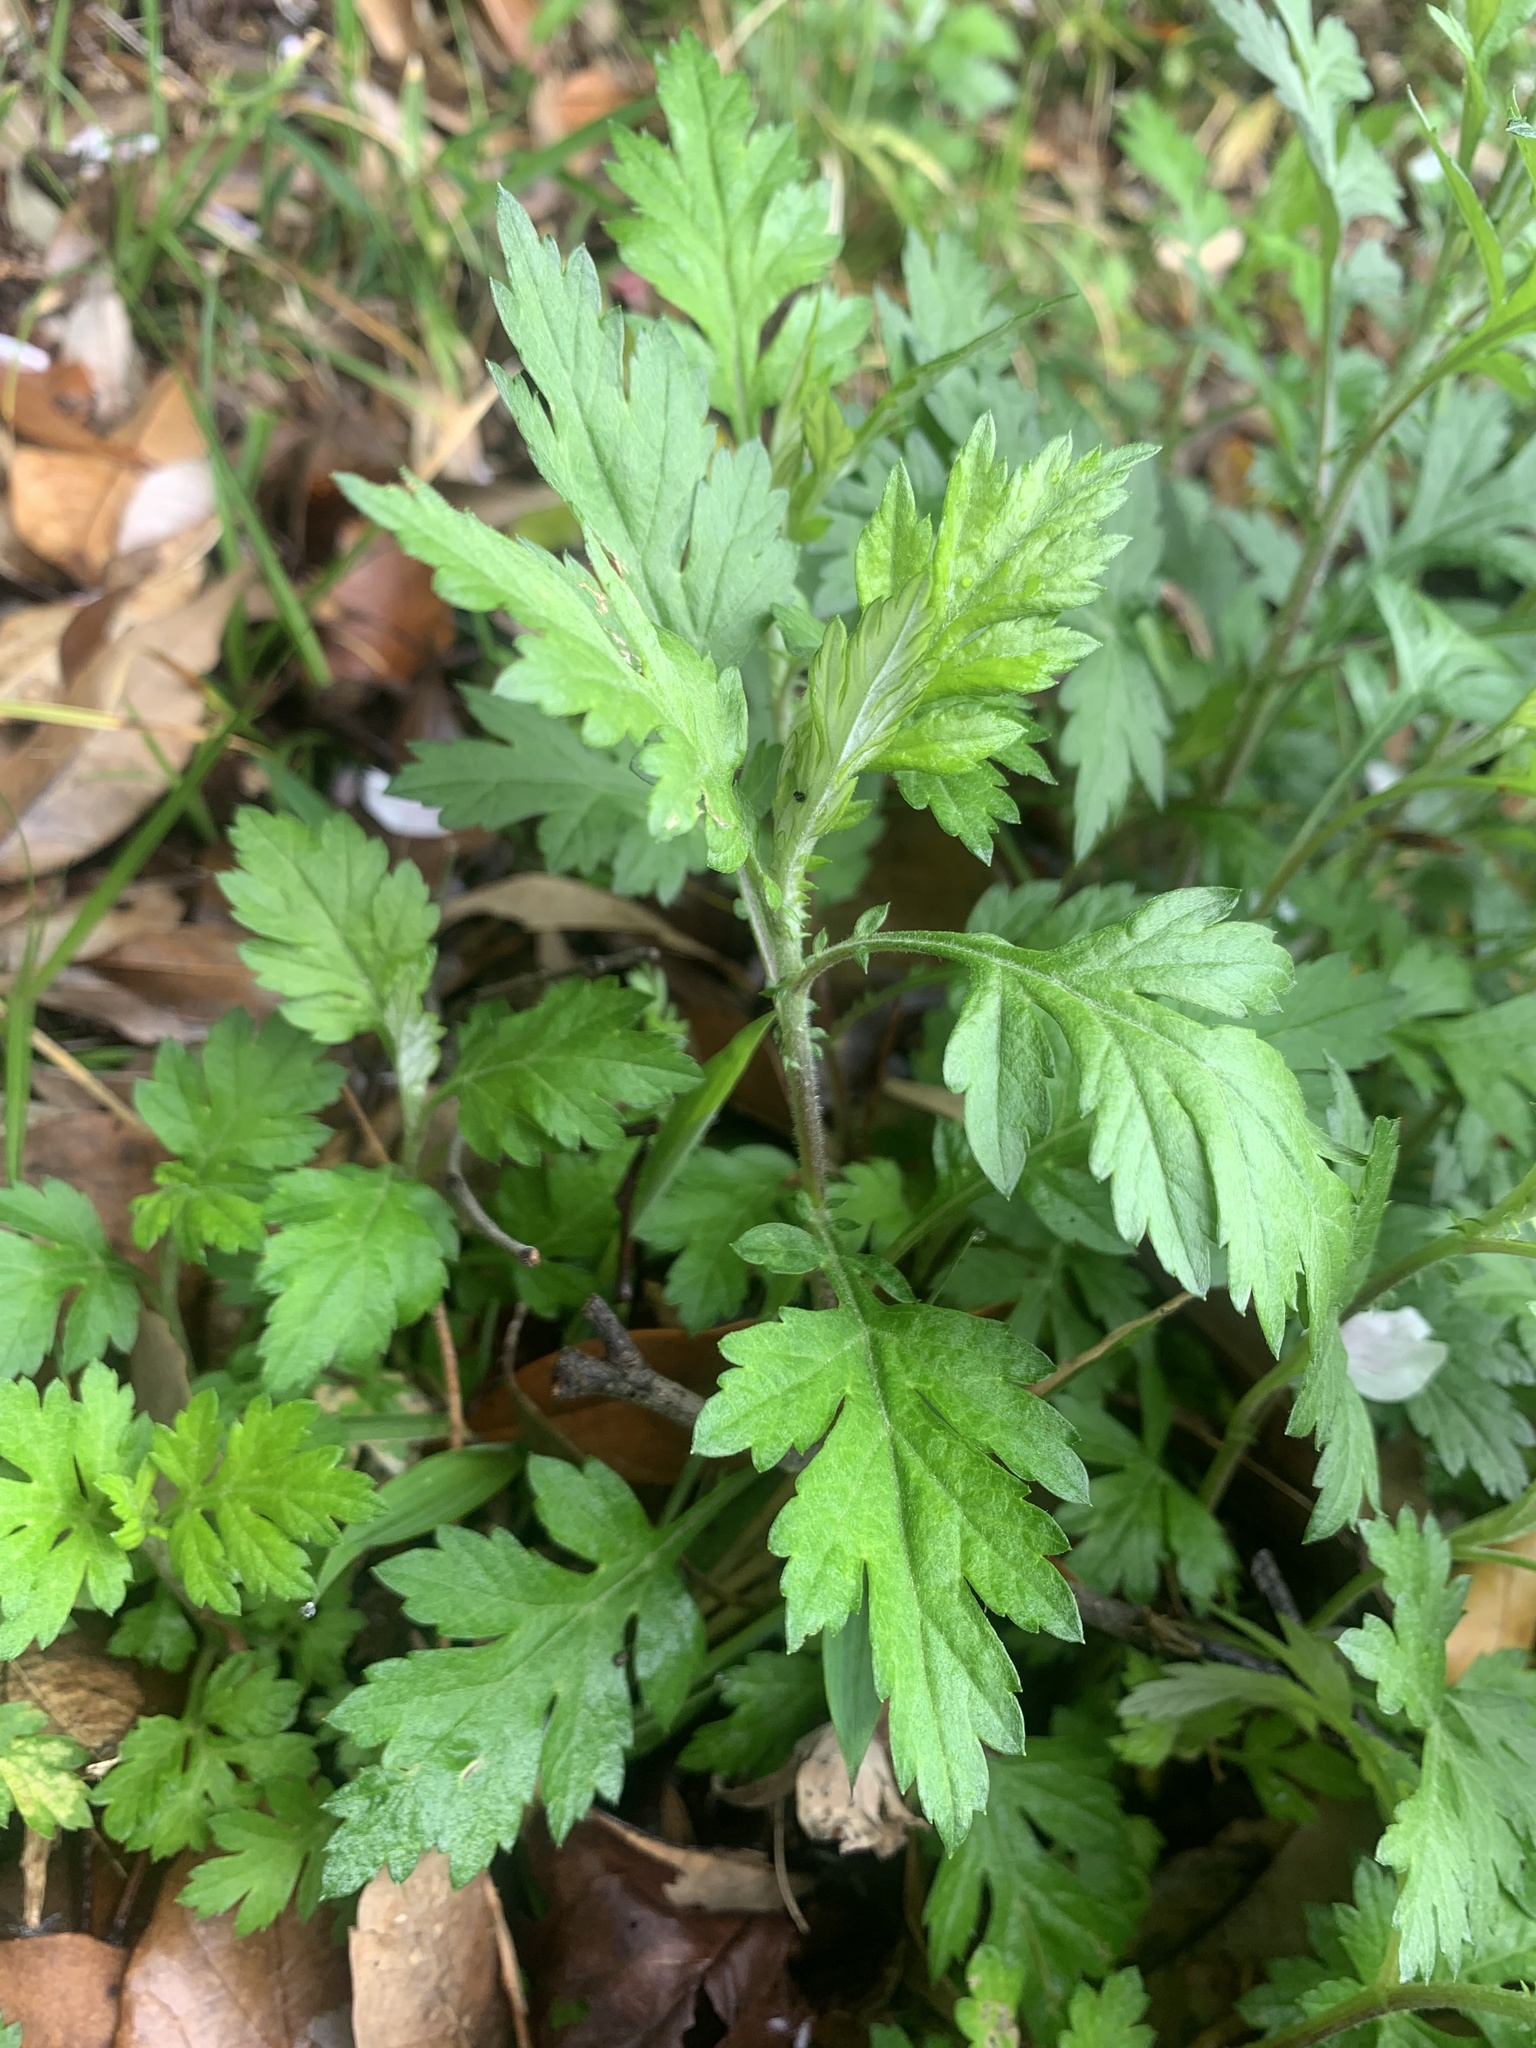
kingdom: Plantae
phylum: Tracheophyta
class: Magnoliopsida
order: Asterales
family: Asteraceae
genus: Artemisia
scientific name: Artemisia princeps
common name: Japanese mugwort
